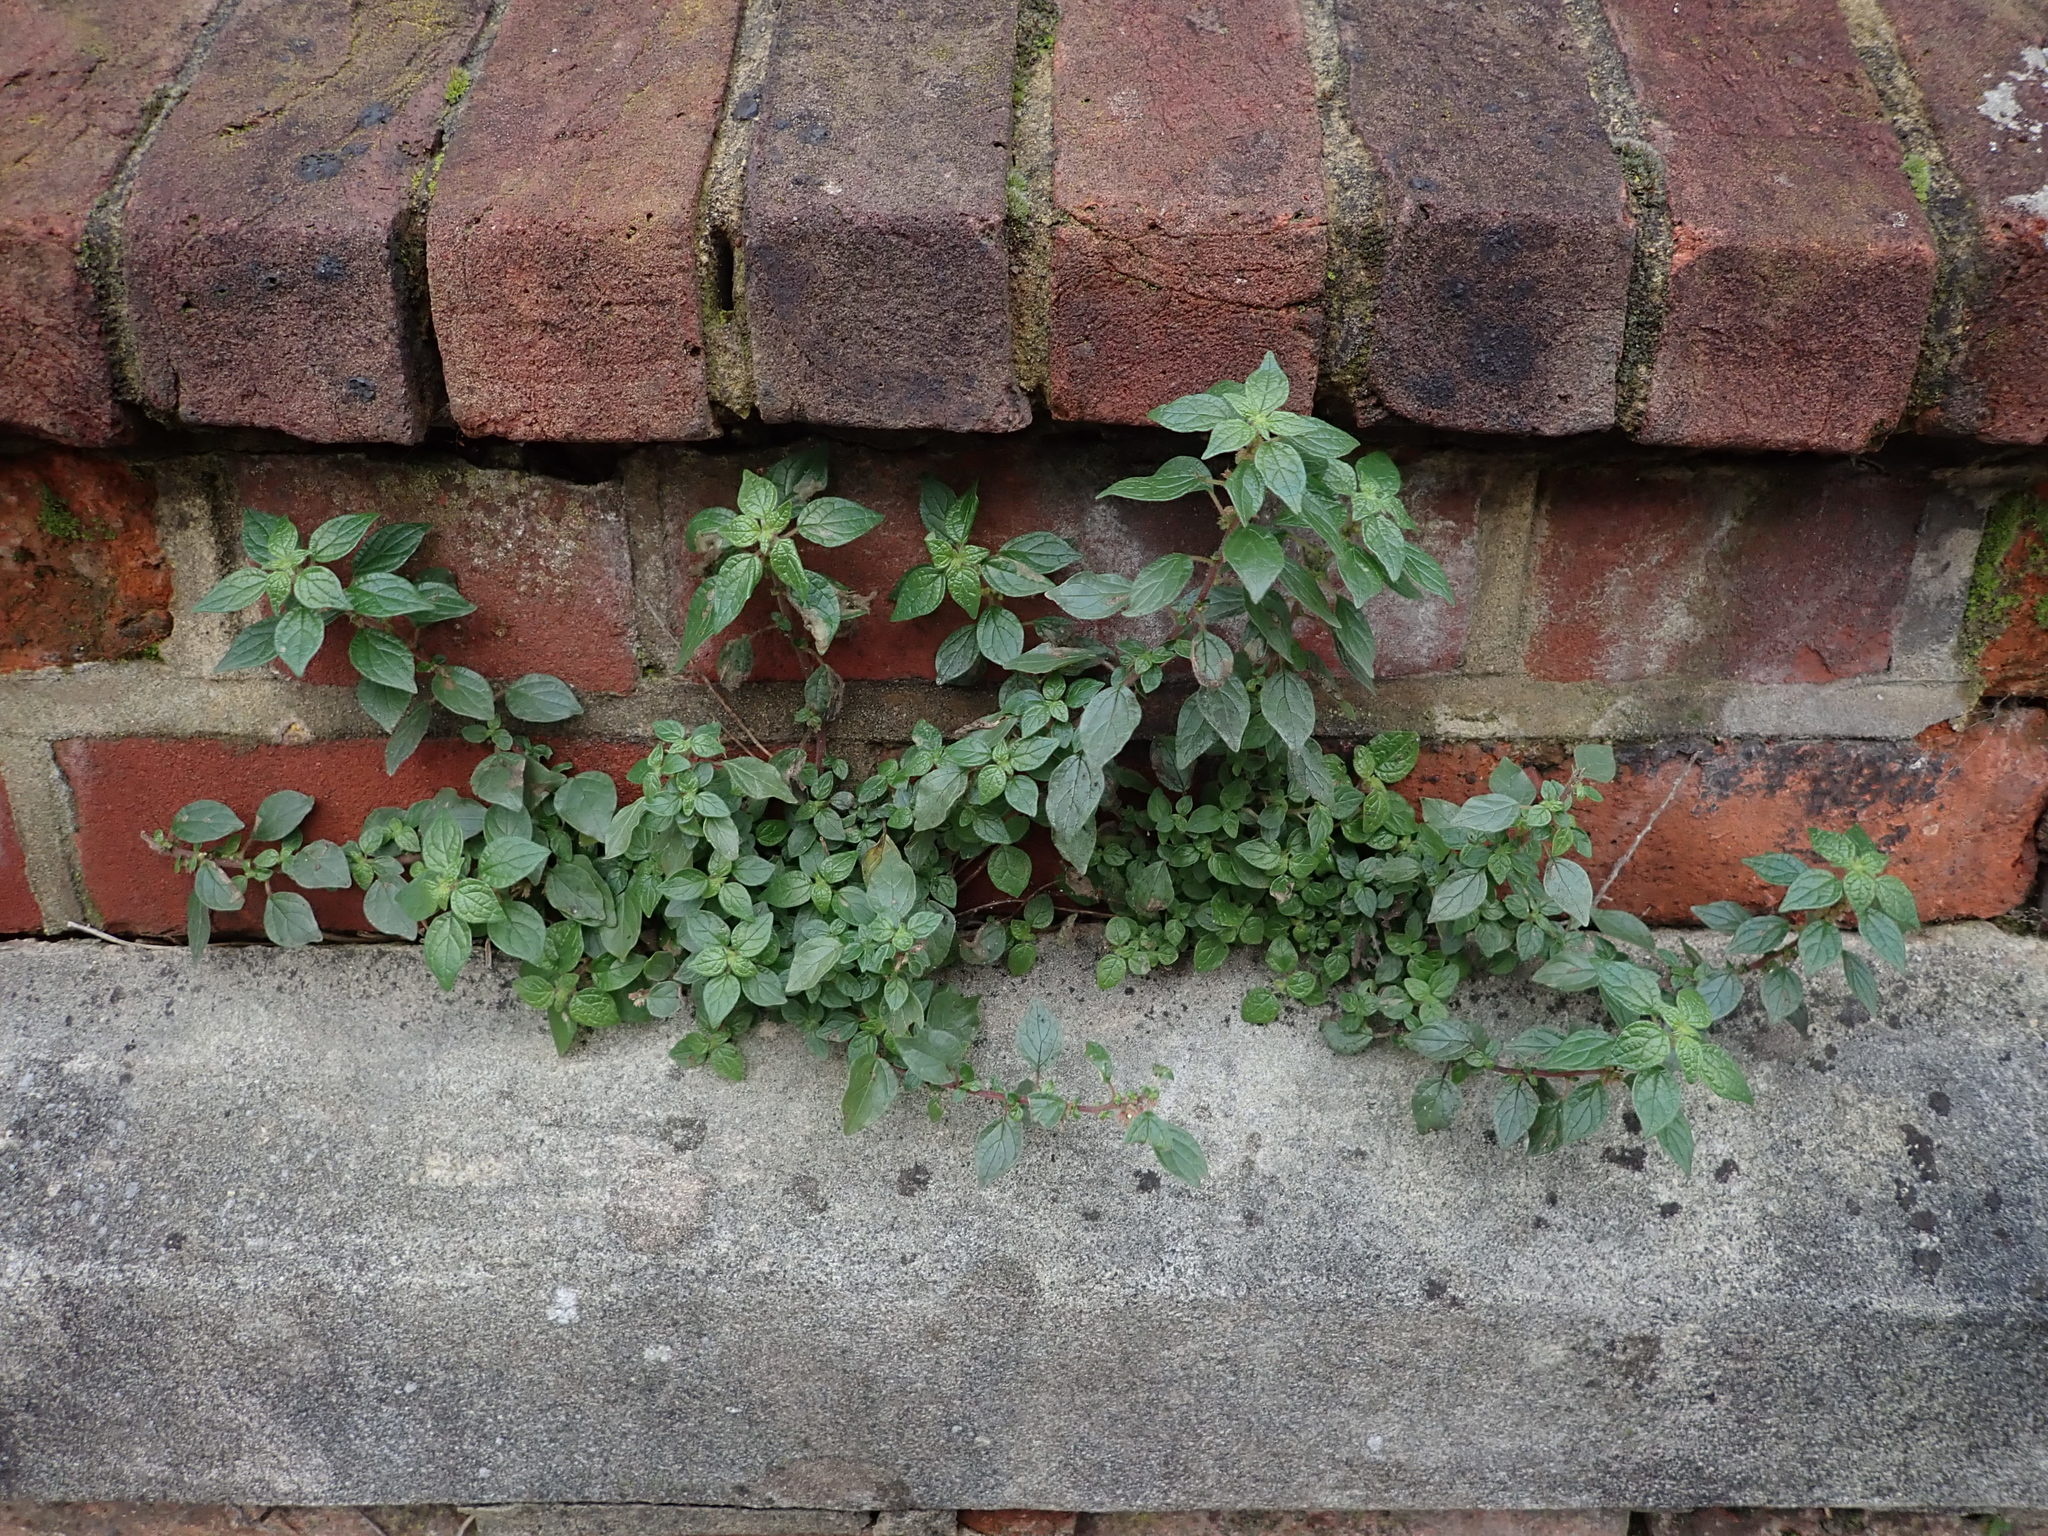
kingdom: Plantae
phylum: Tracheophyta
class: Magnoliopsida
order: Rosales
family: Urticaceae
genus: Parietaria
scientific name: Parietaria judaica
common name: Pellitory-of-the-wall
